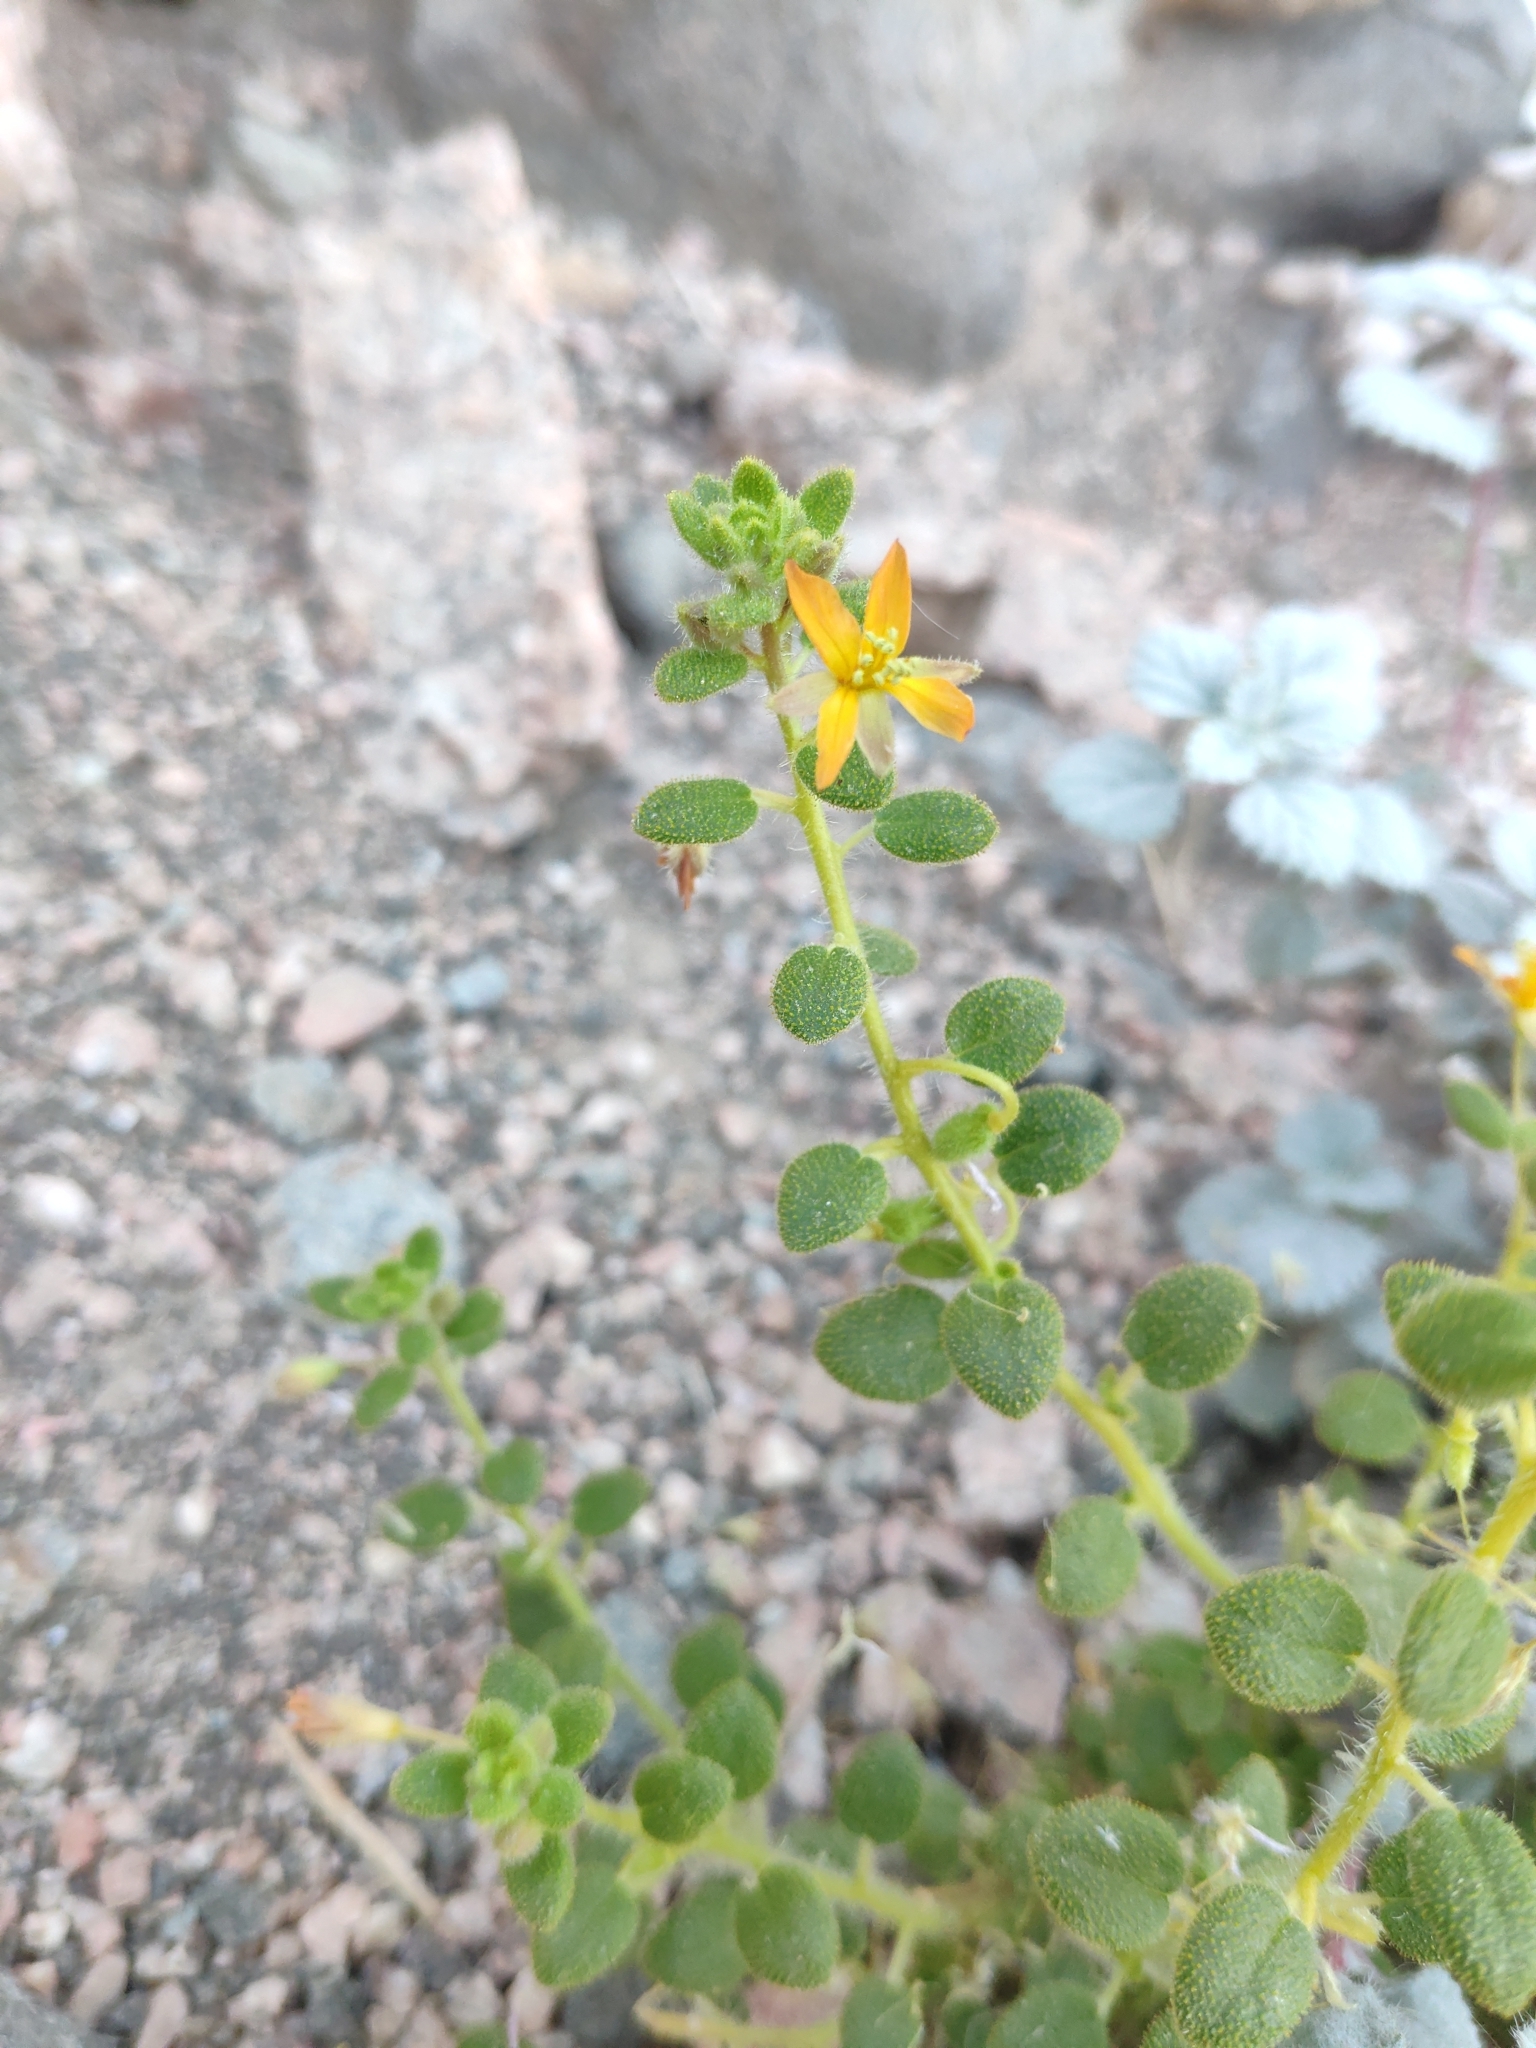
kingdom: Plantae
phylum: Tracheophyta
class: Magnoliopsida
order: Brassicales
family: Cleomaceae
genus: Thulinella
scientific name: Thulinella chrysantha
